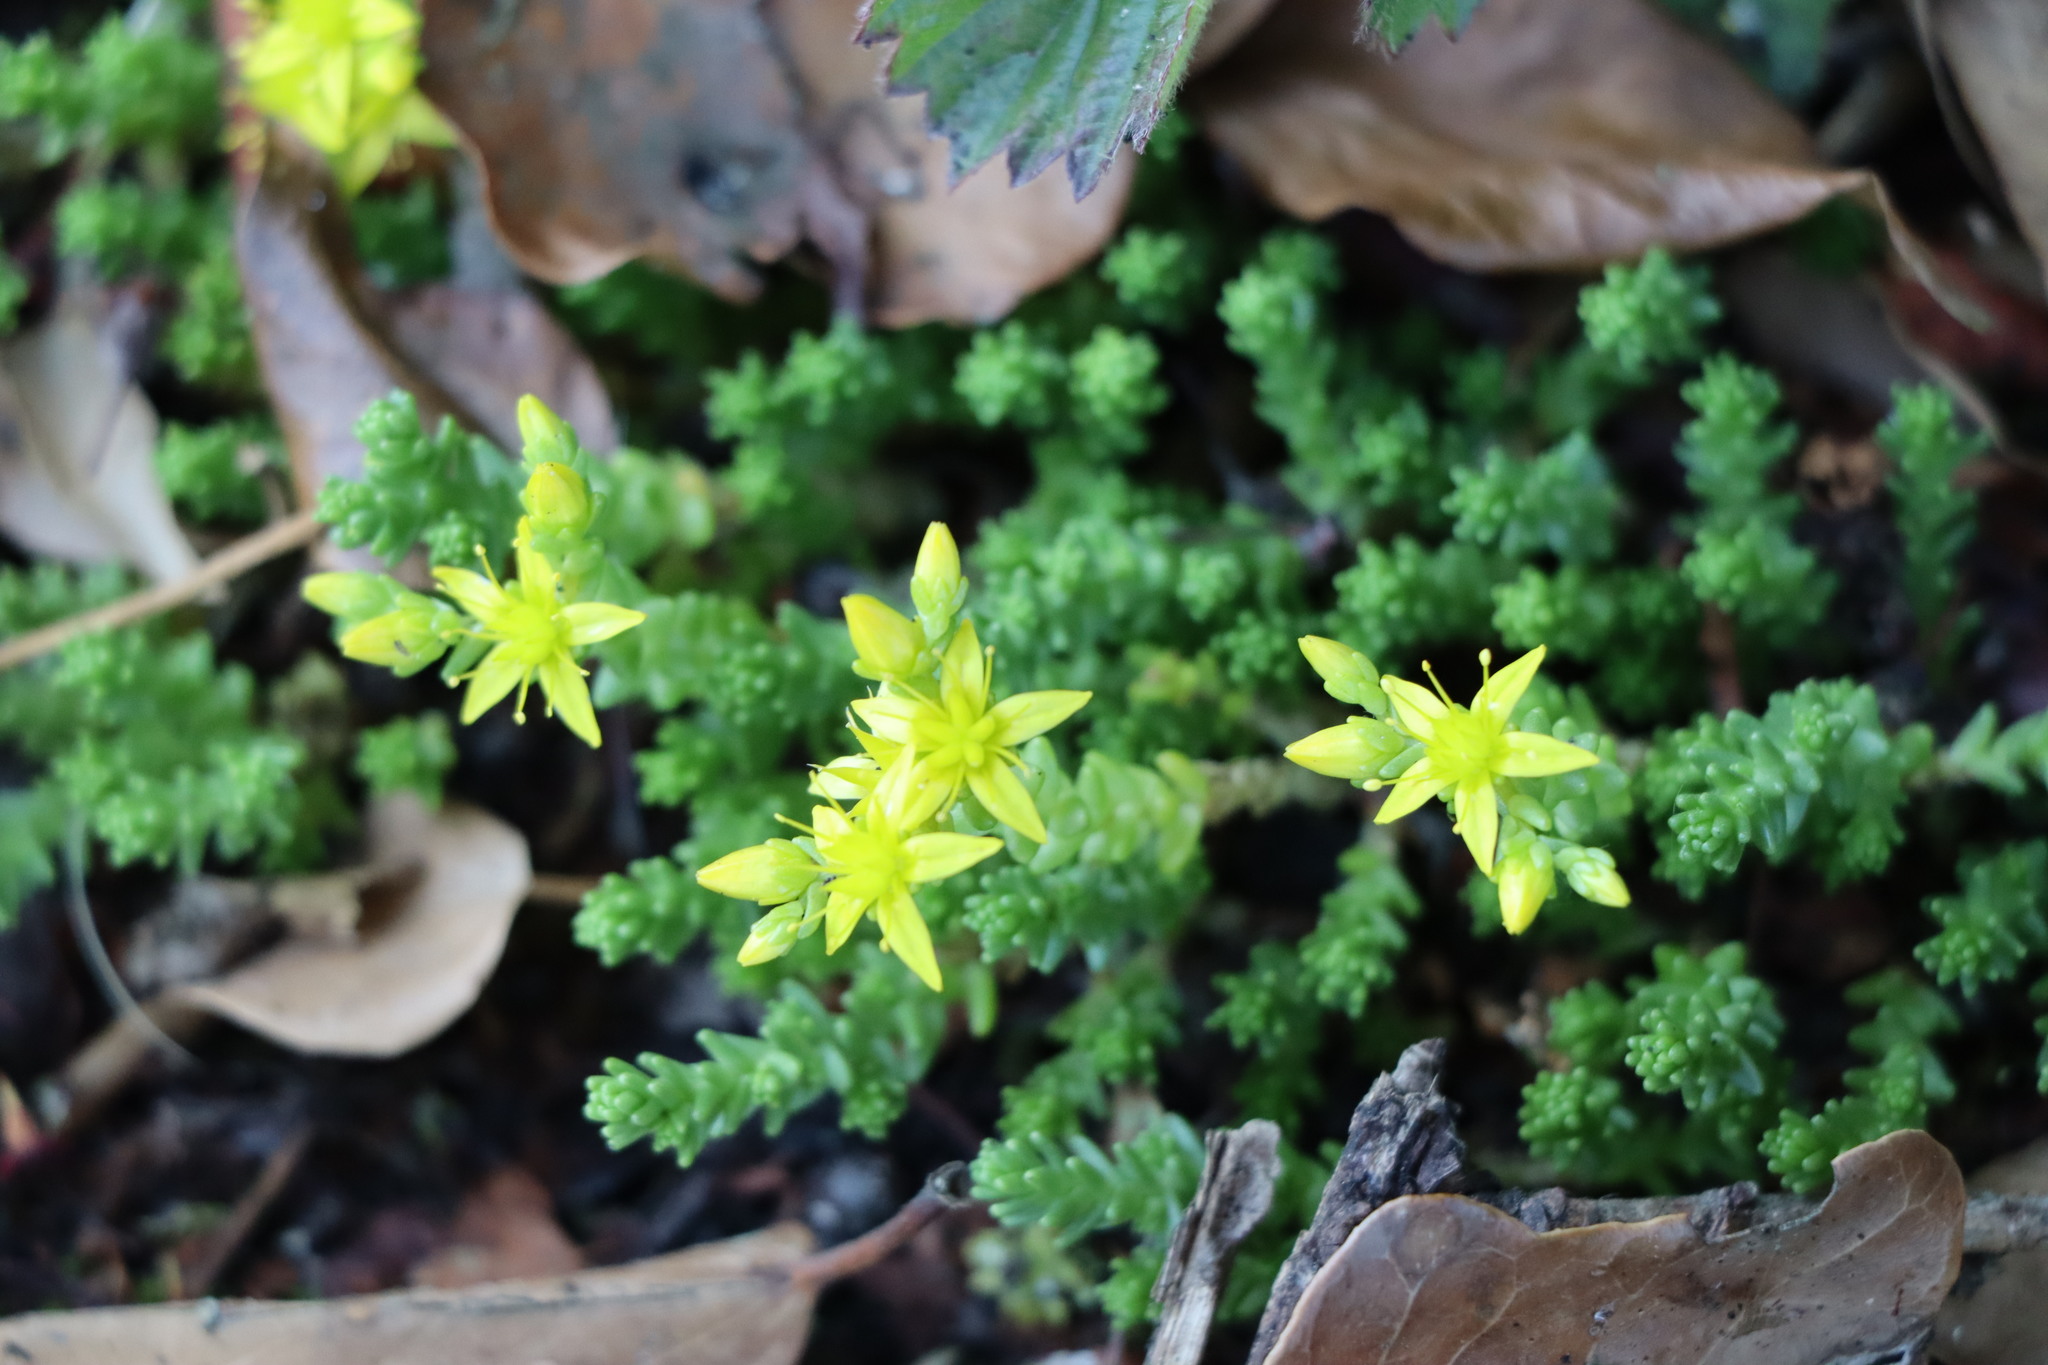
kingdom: Plantae
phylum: Tracheophyta
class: Magnoliopsida
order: Saxifragales
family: Crassulaceae
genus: Sedum
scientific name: Sedum acre
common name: Biting stonecrop
